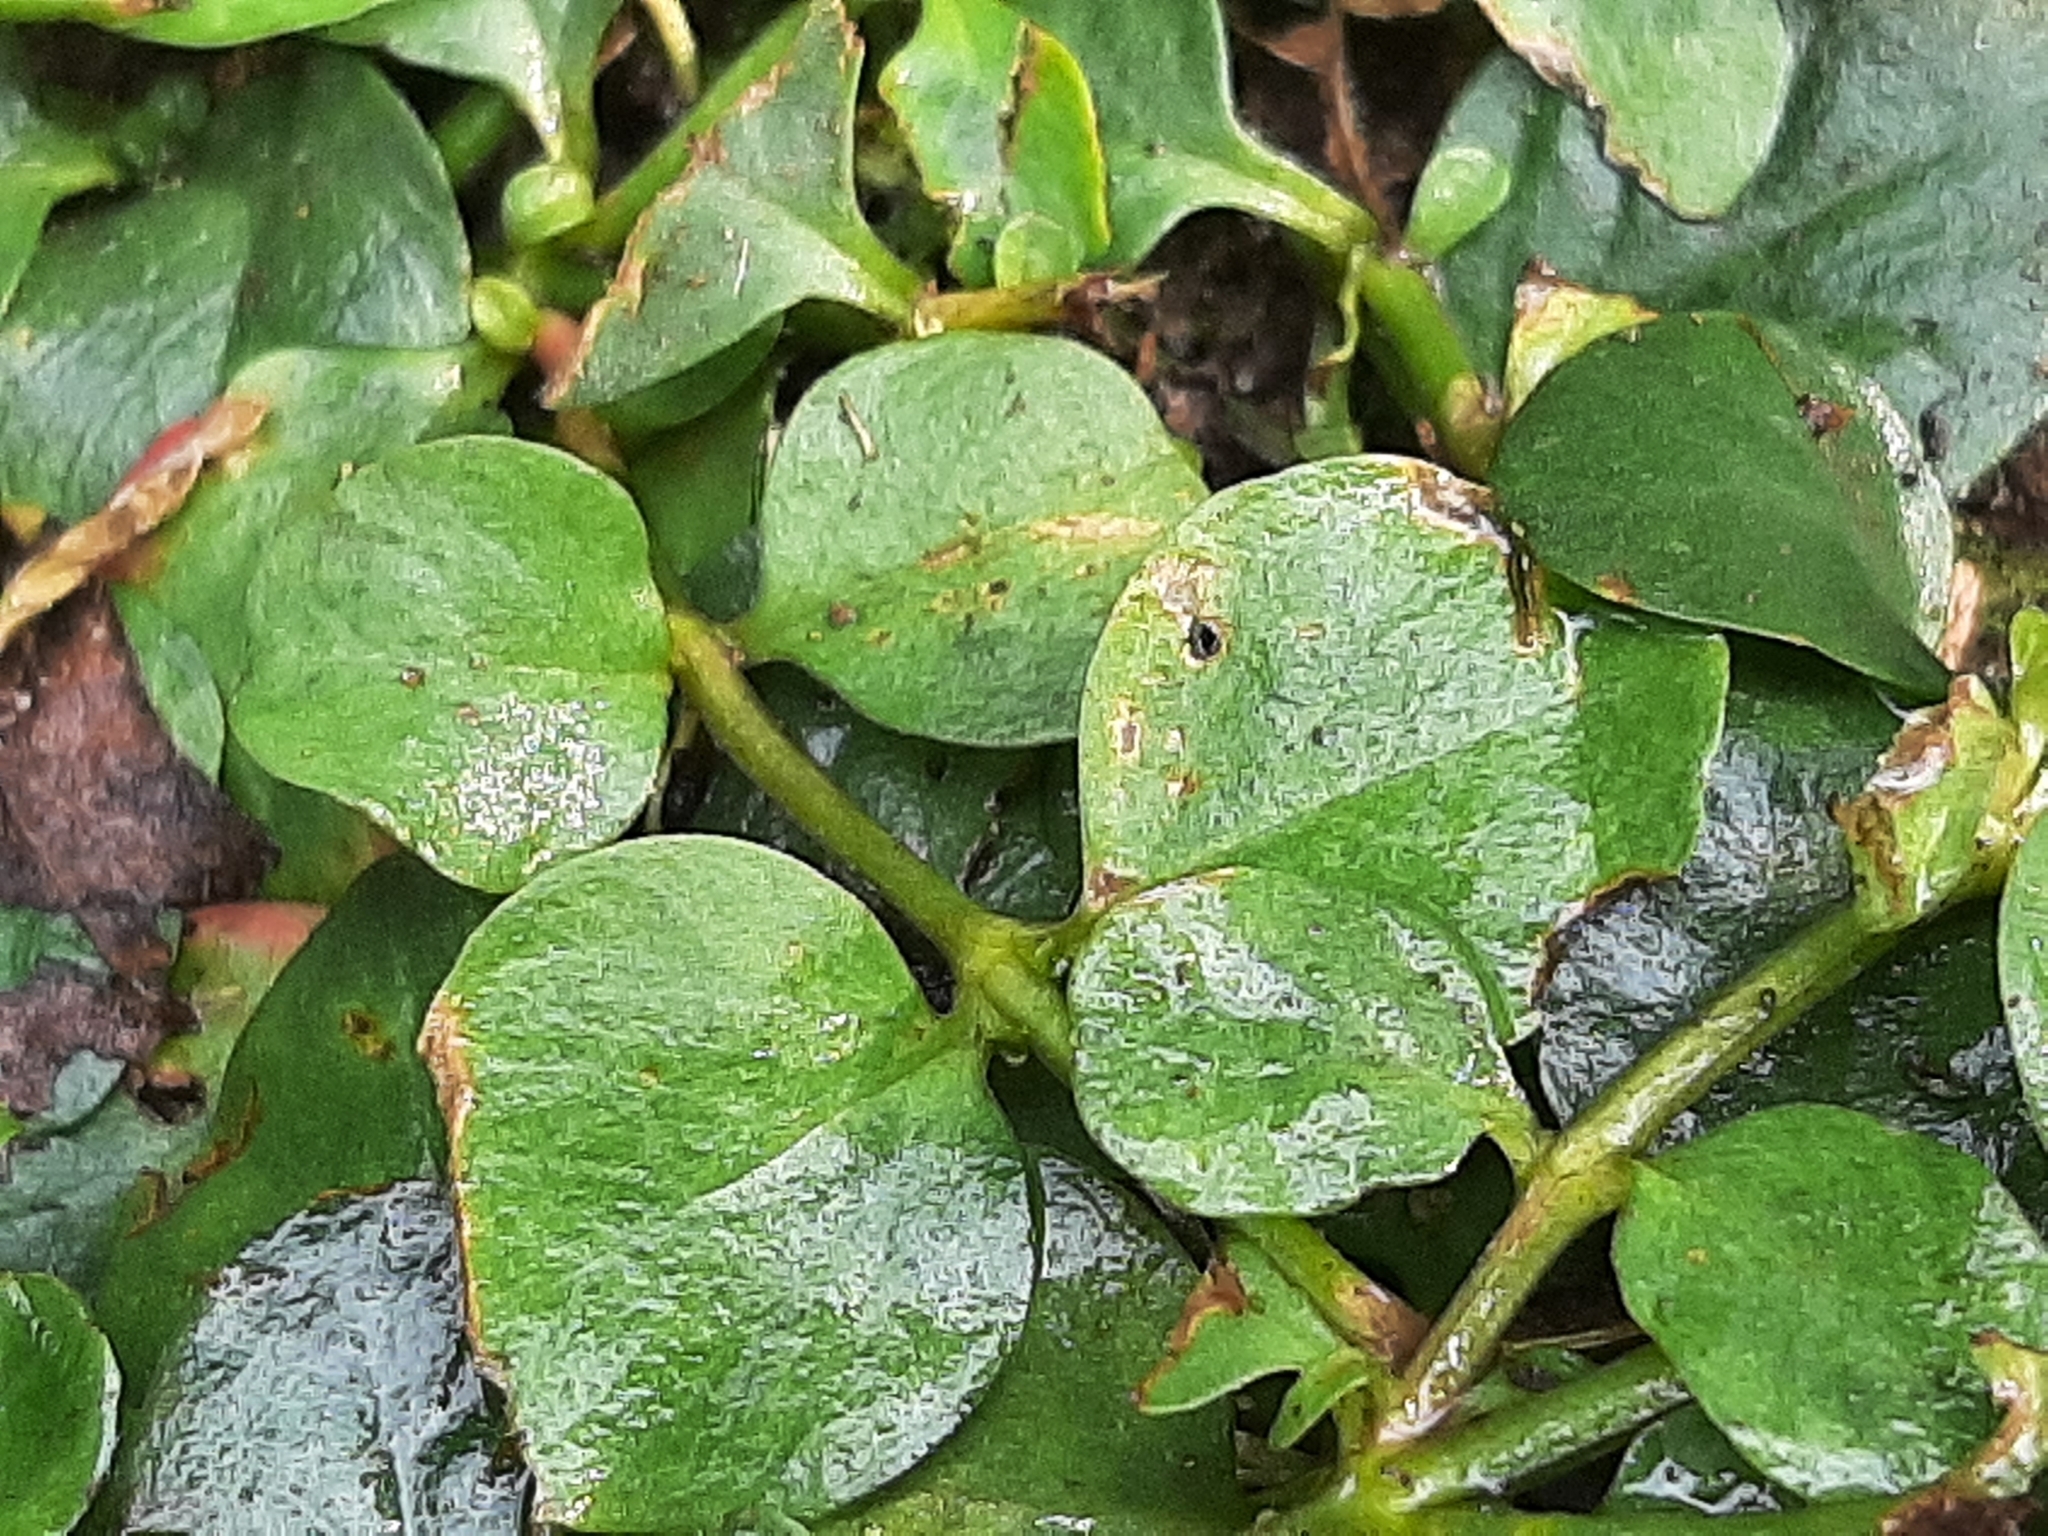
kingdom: Plantae
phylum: Tracheophyta
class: Magnoliopsida
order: Ericales
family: Primulaceae
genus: Lysimachia
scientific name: Lysimachia nummularia
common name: Moneywort
